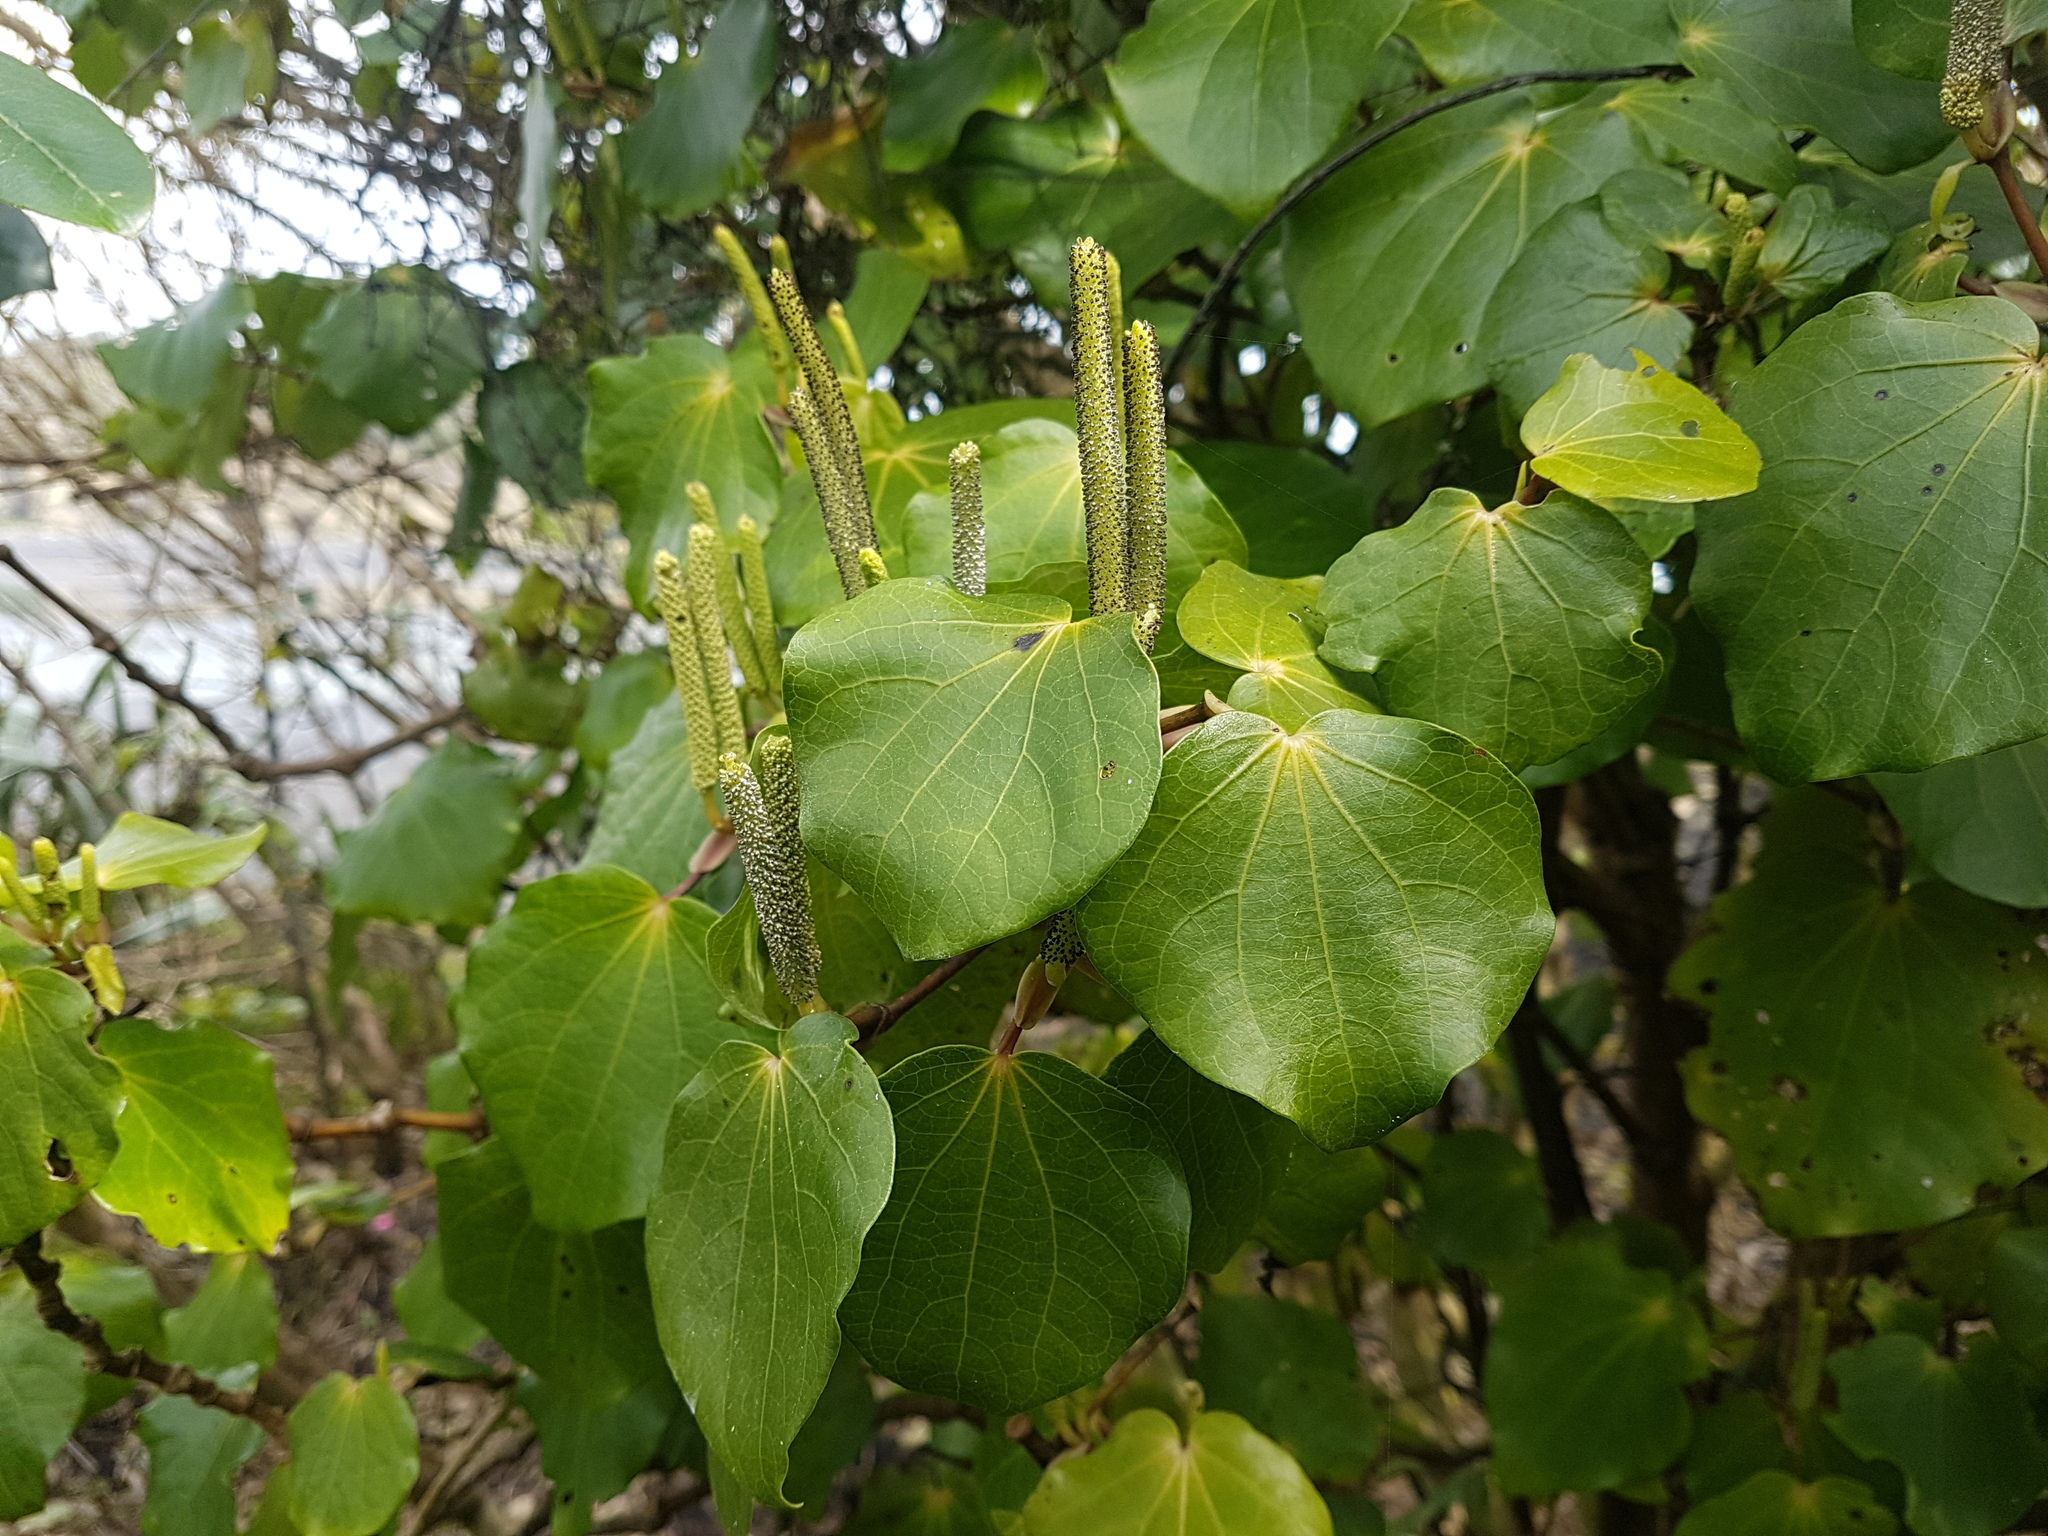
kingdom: Plantae
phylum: Tracheophyta
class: Magnoliopsida
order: Piperales
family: Piperaceae
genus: Macropiper
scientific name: Macropiper excelsum
